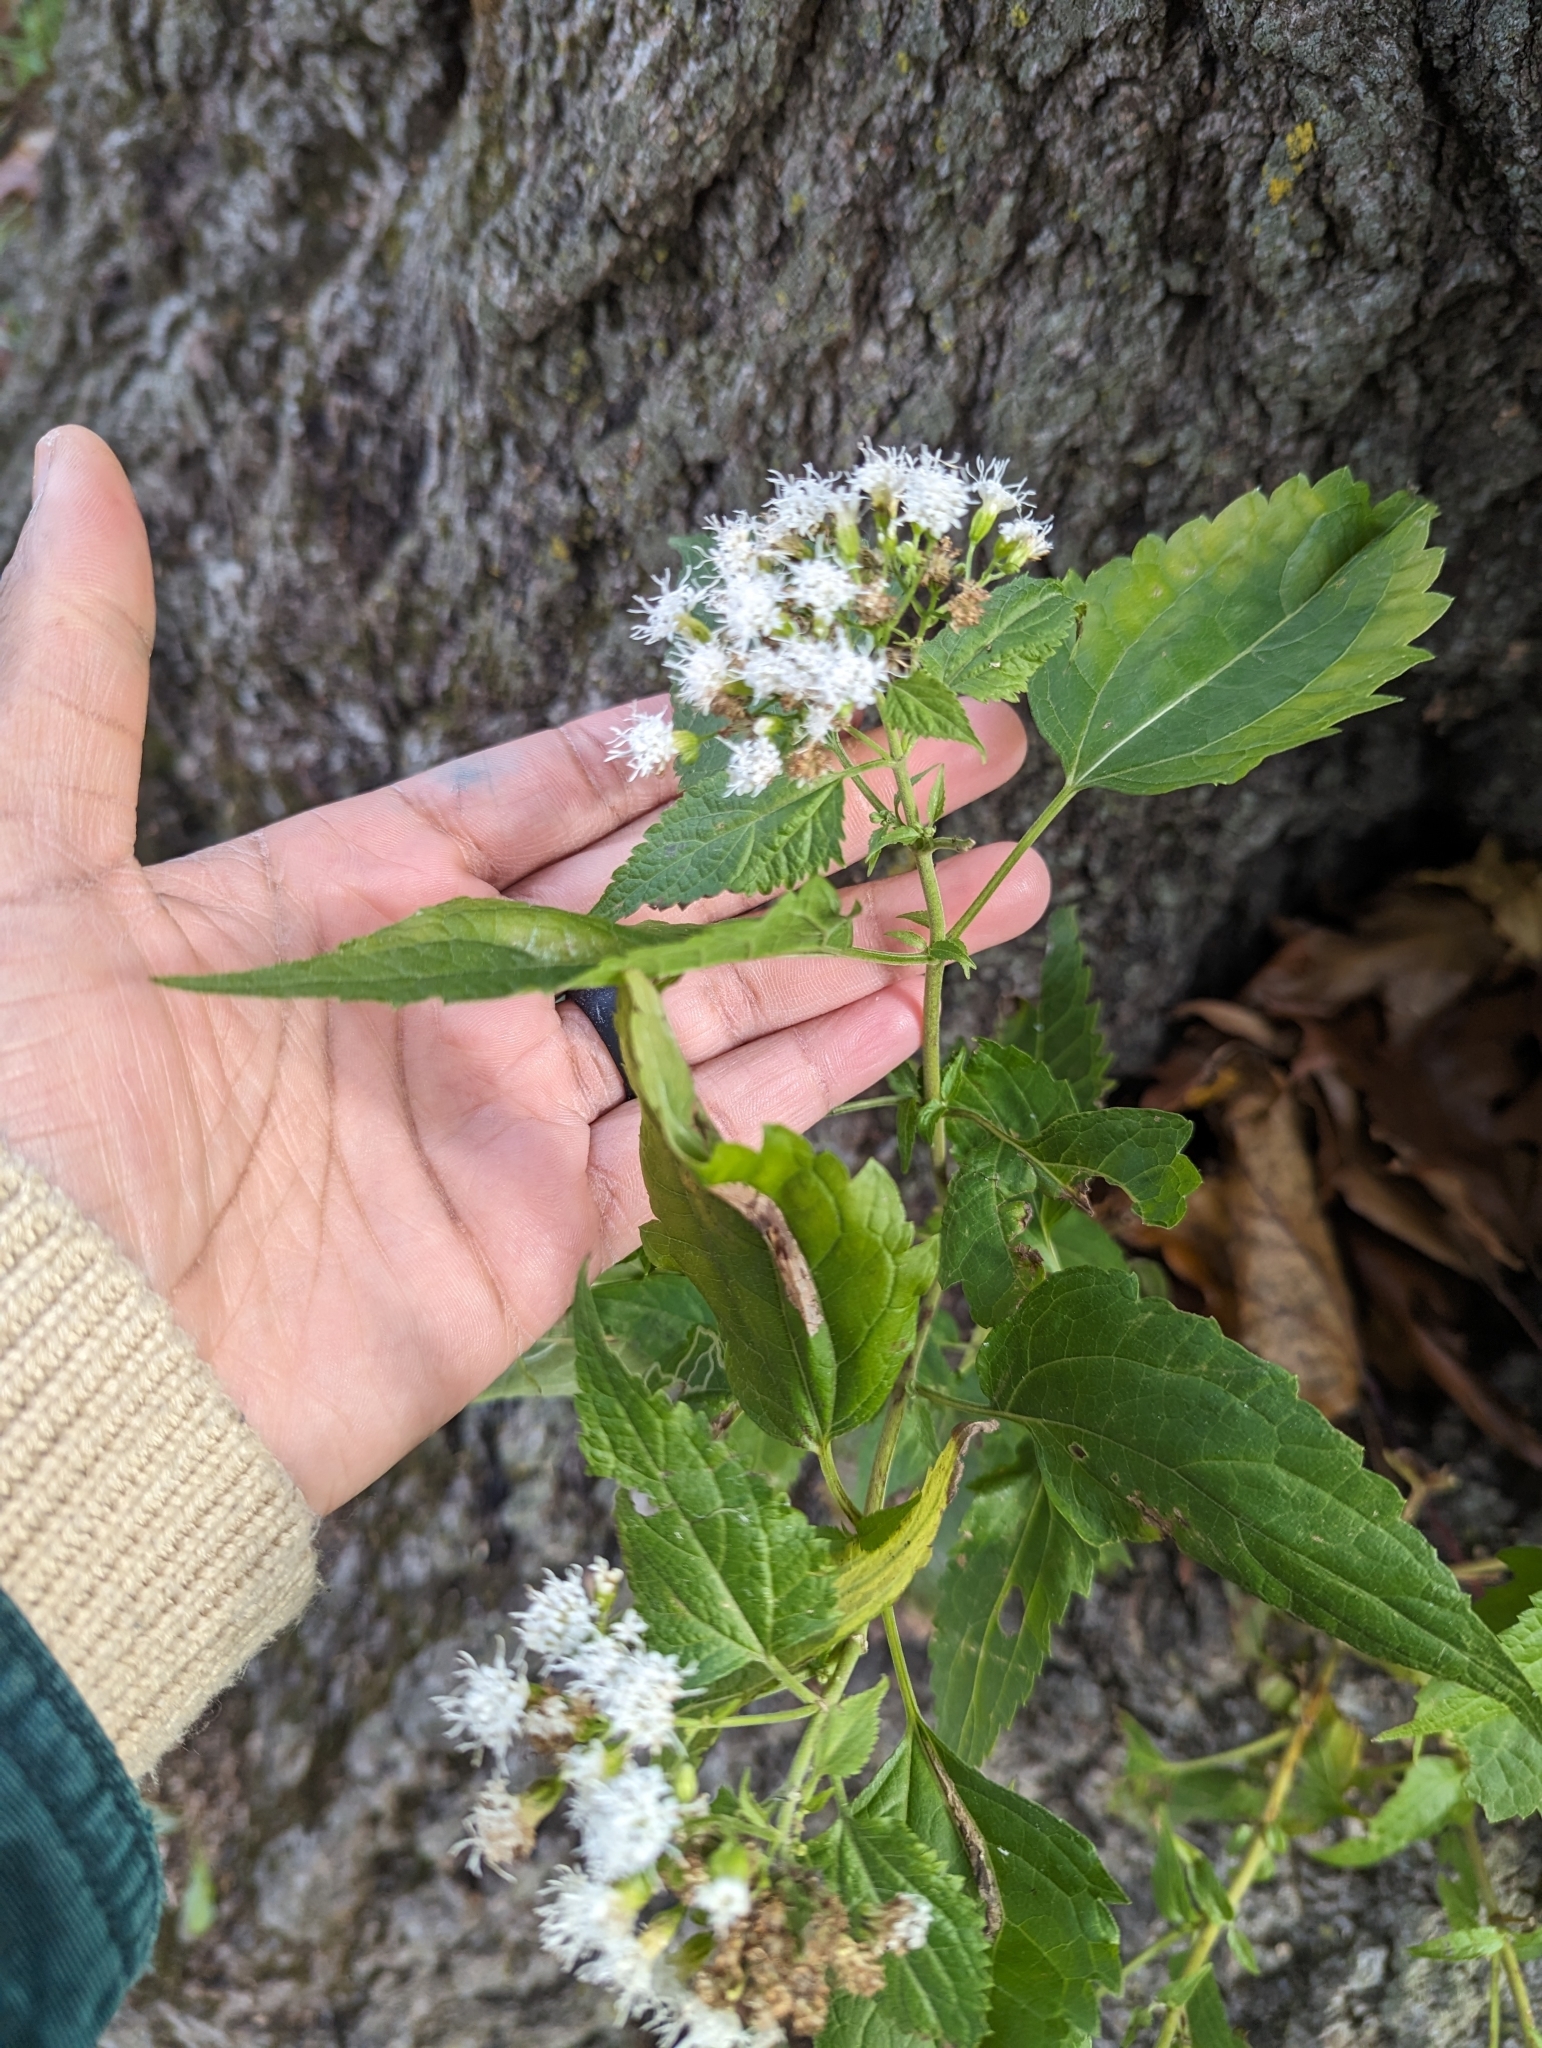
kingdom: Plantae
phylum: Tracheophyta
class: Magnoliopsida
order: Asterales
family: Asteraceae
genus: Ageratina
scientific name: Ageratina altissima
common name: White snakeroot
